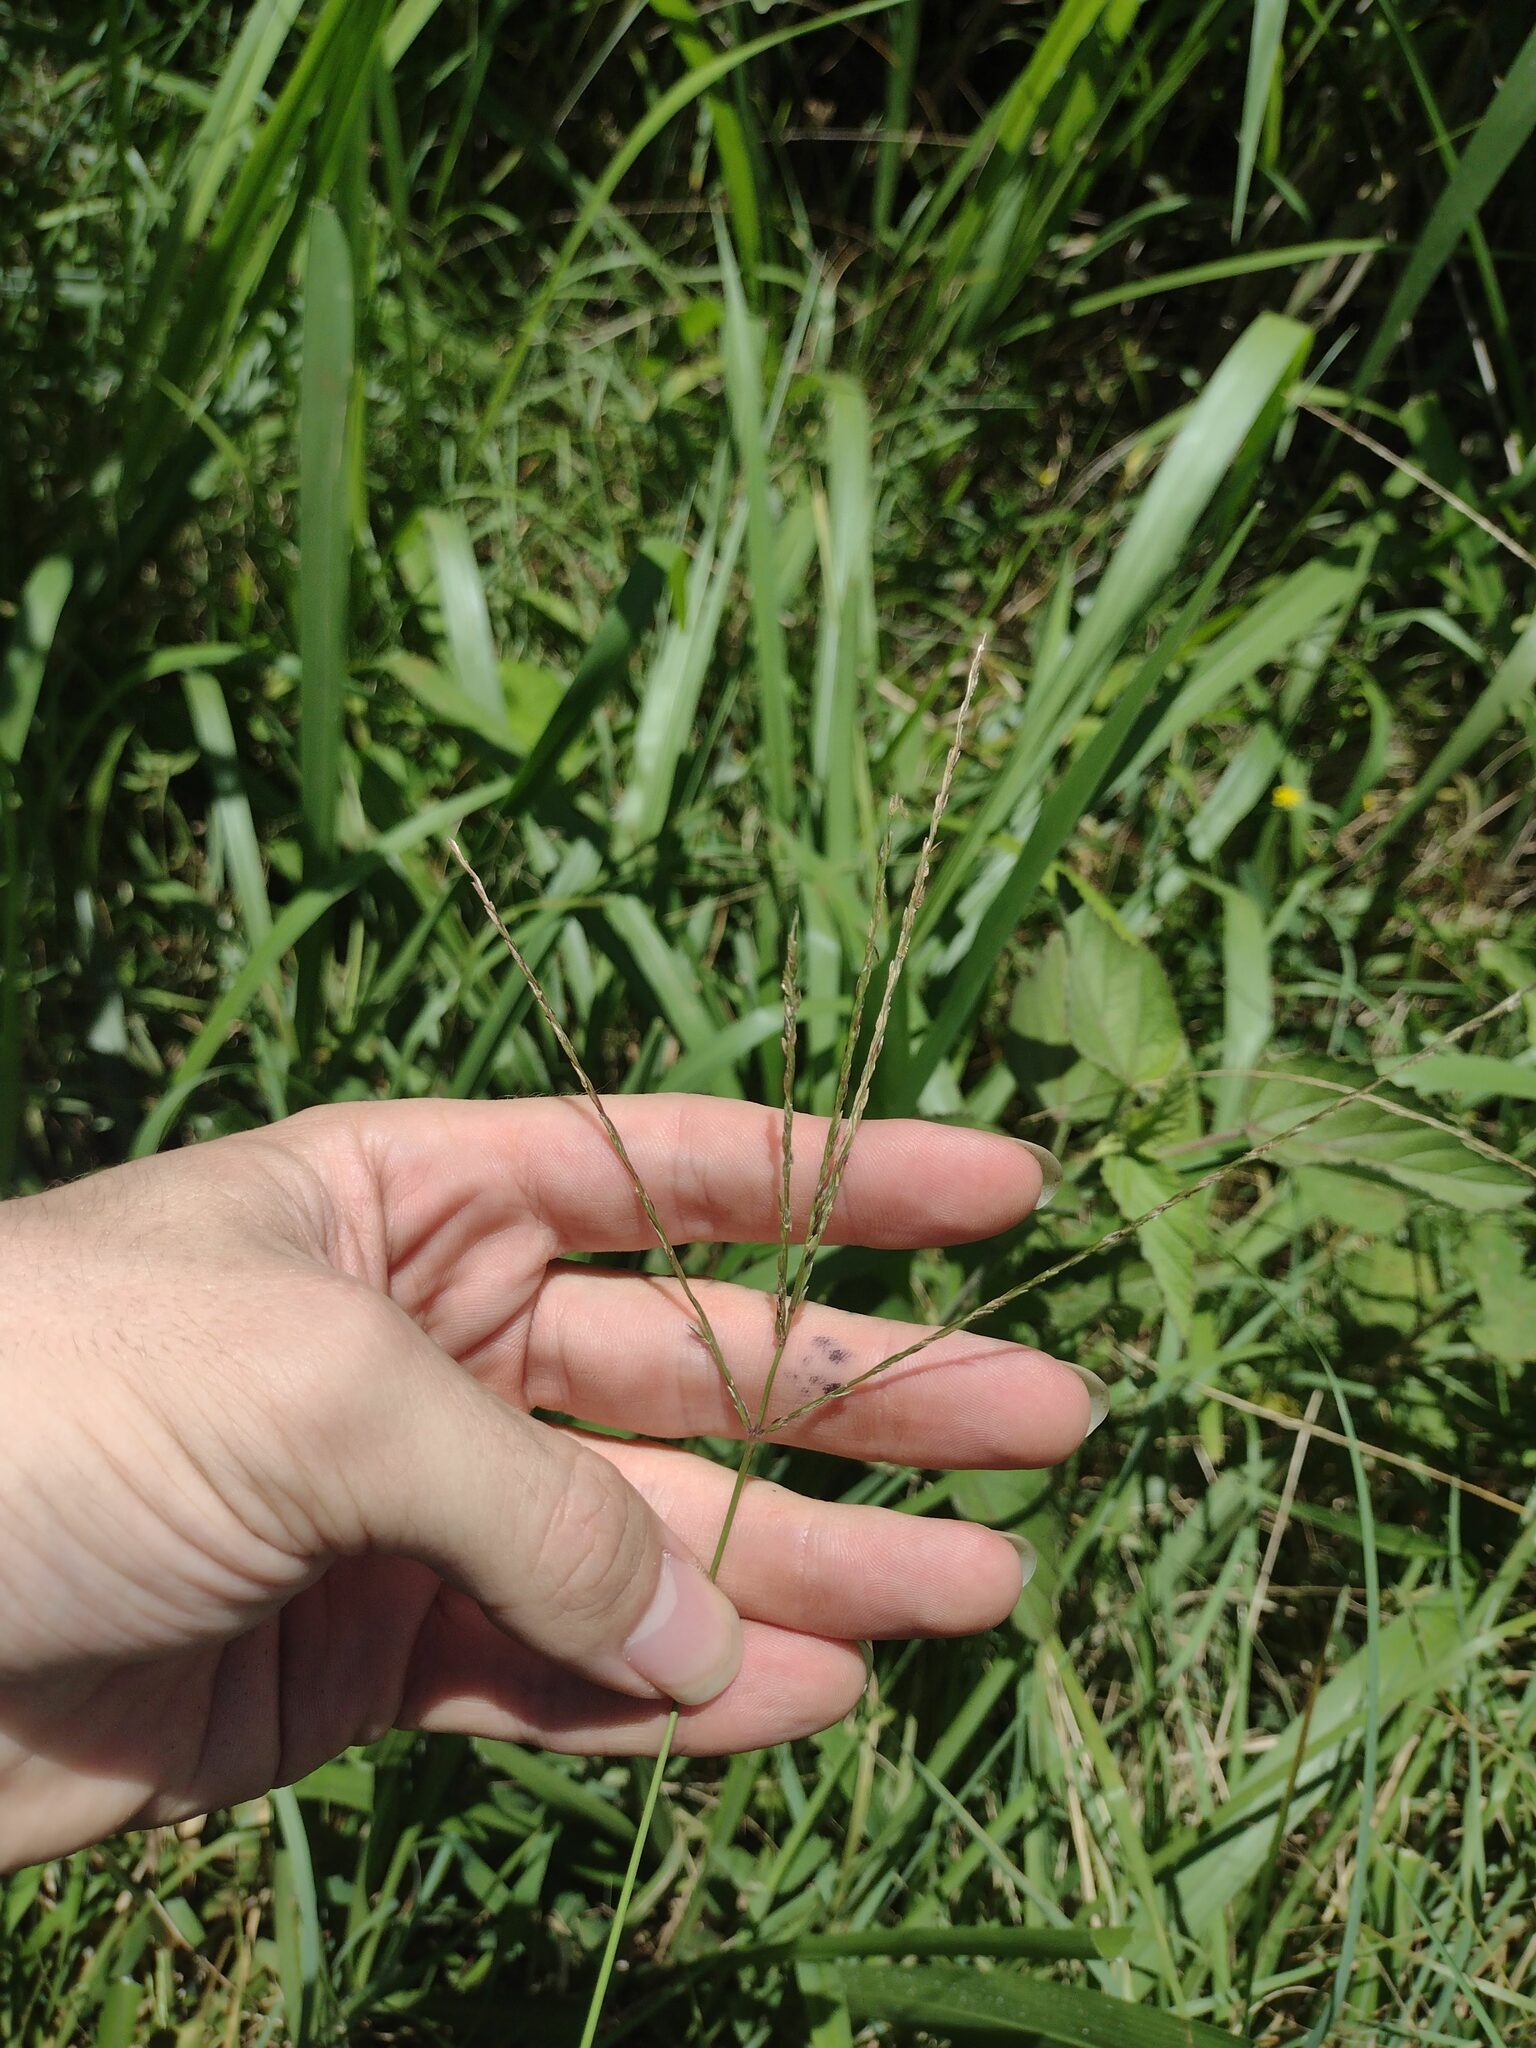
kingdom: Plantae
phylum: Tracheophyta
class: Liliopsida
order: Poales
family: Poaceae
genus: Digitaria
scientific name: Digitaria ciliaris
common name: Tropical finger-grass
